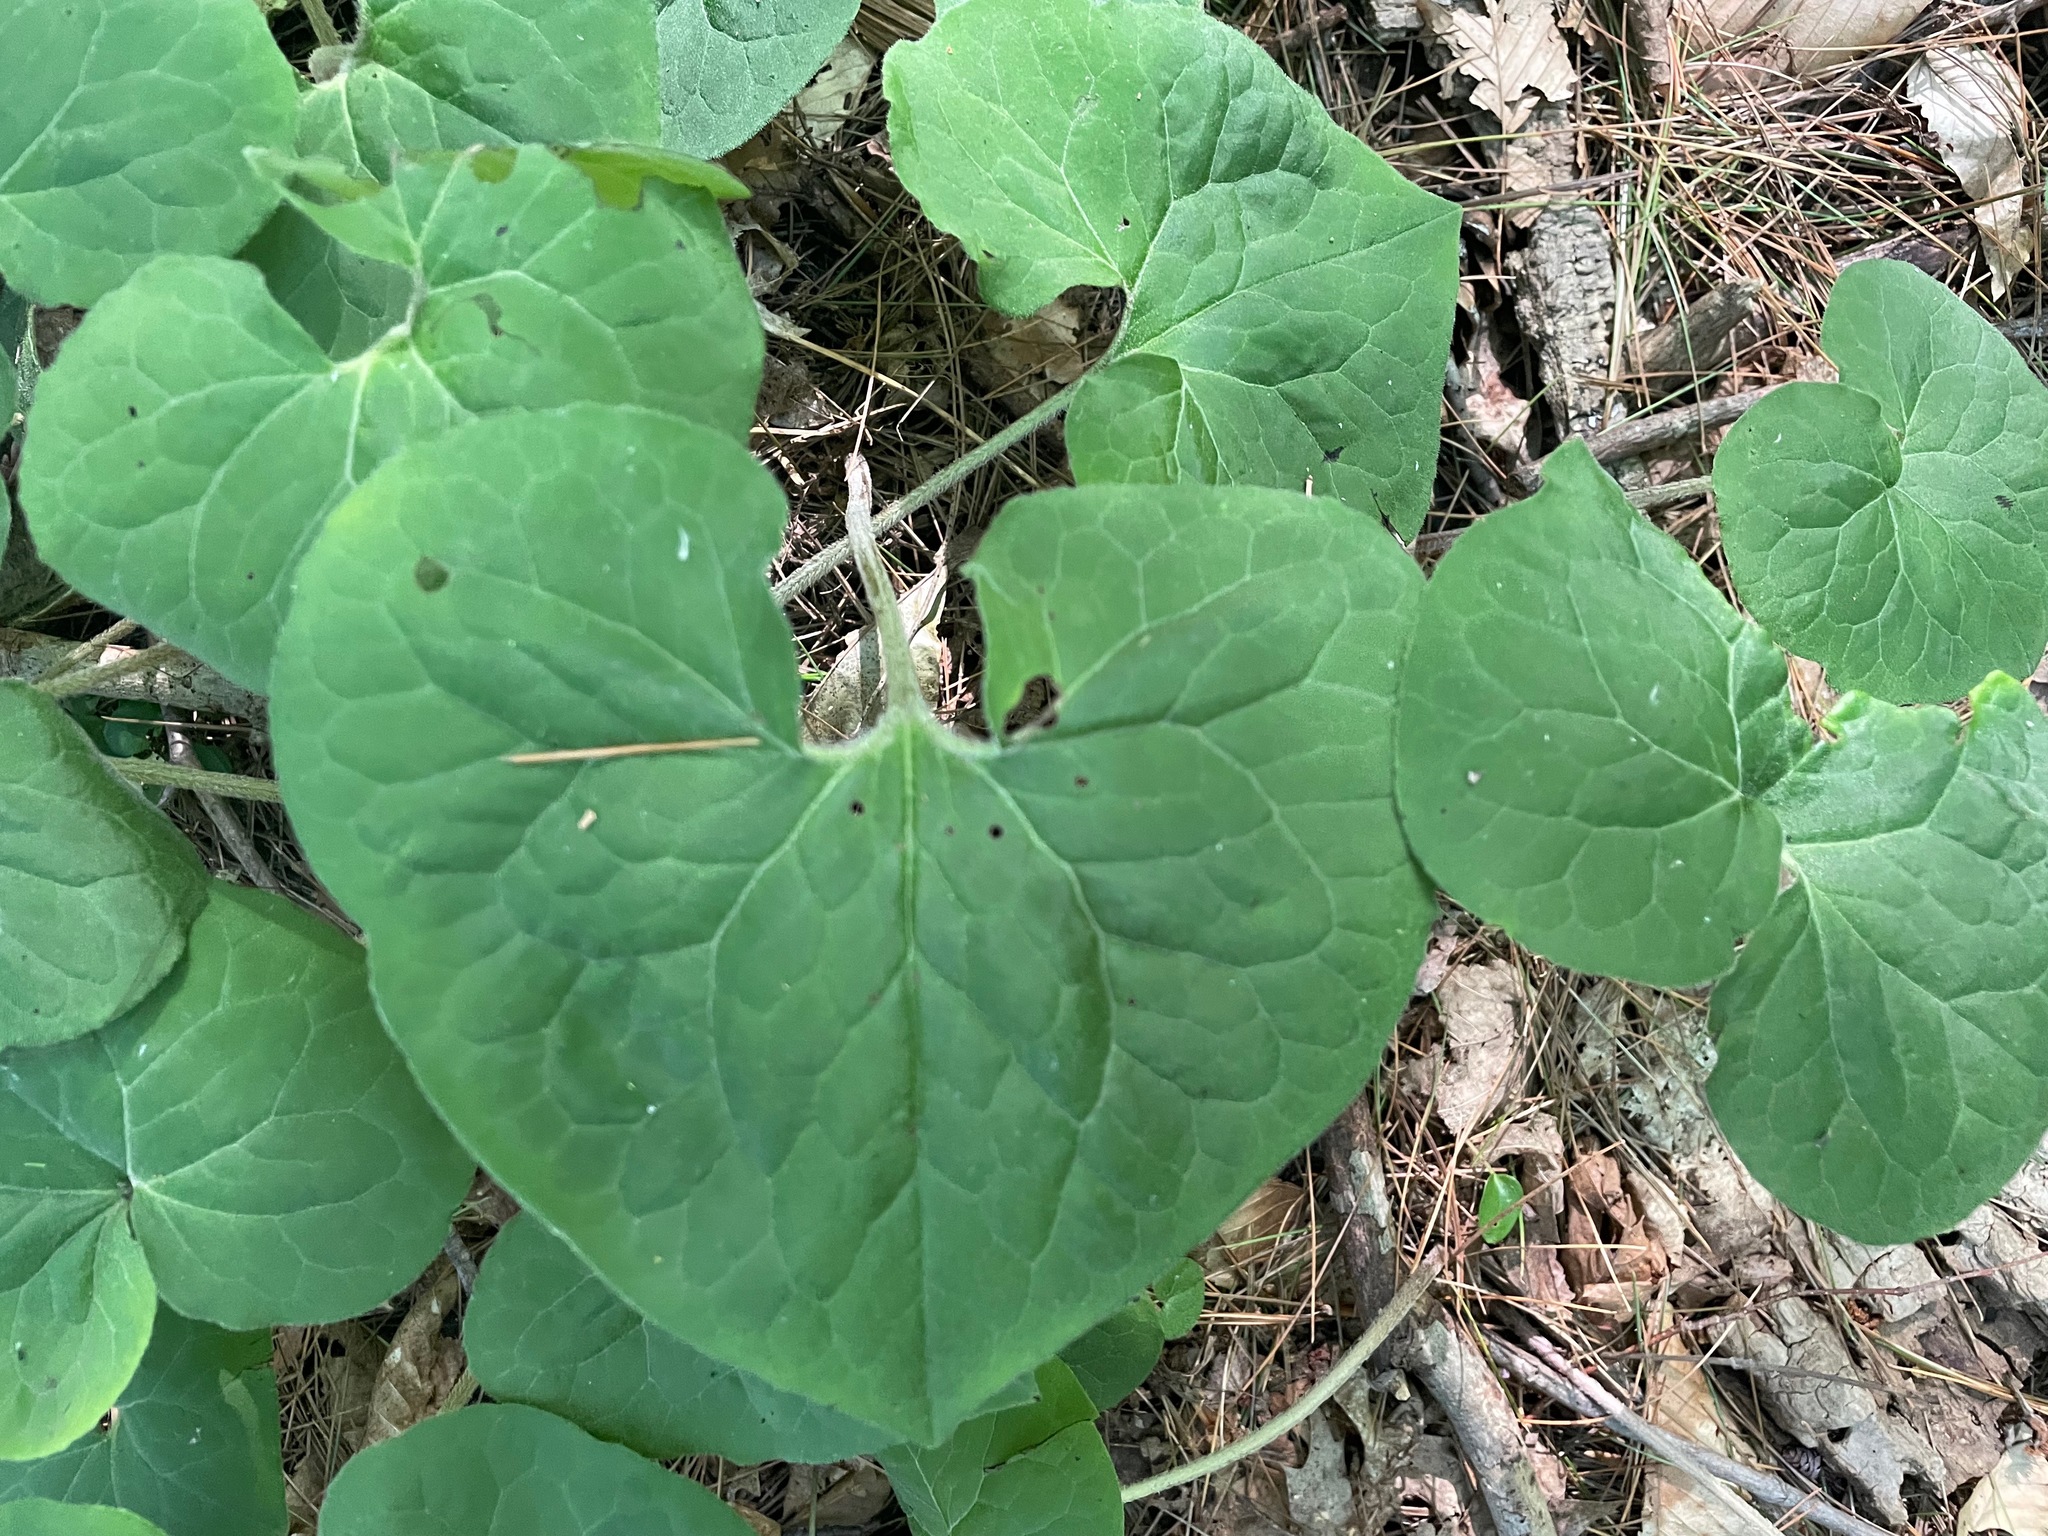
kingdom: Plantae
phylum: Tracheophyta
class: Magnoliopsida
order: Piperales
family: Aristolochiaceae
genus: Asarum
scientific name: Asarum canadense
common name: Wild ginger
